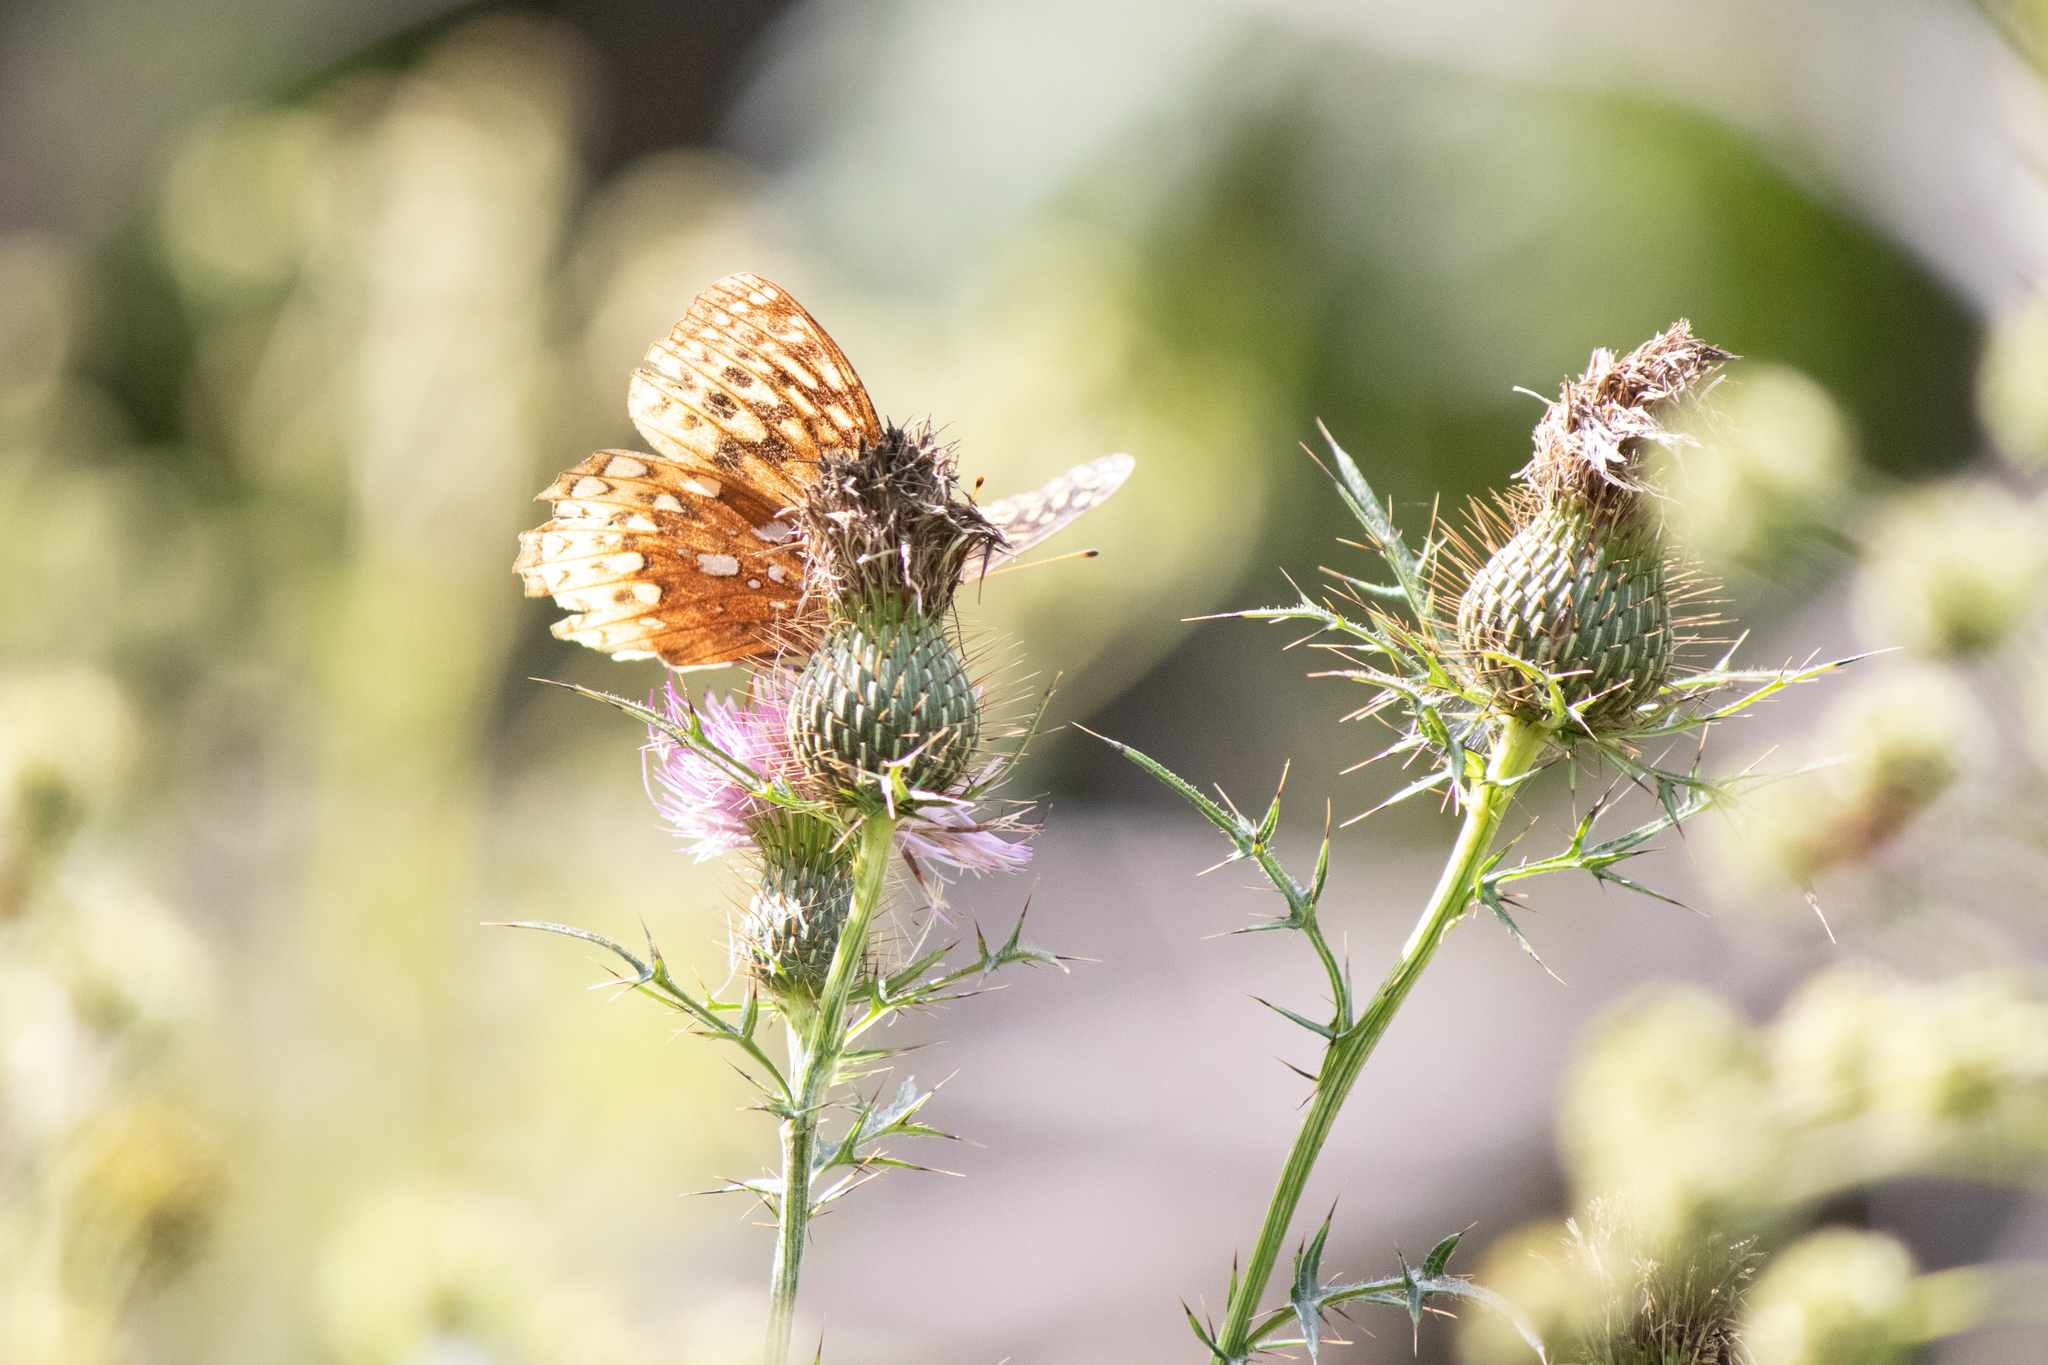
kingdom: Animalia
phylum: Arthropoda
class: Insecta
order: Lepidoptera
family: Nymphalidae
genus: Speyeria
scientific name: Speyeria cybele
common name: Great spangled fritillary
